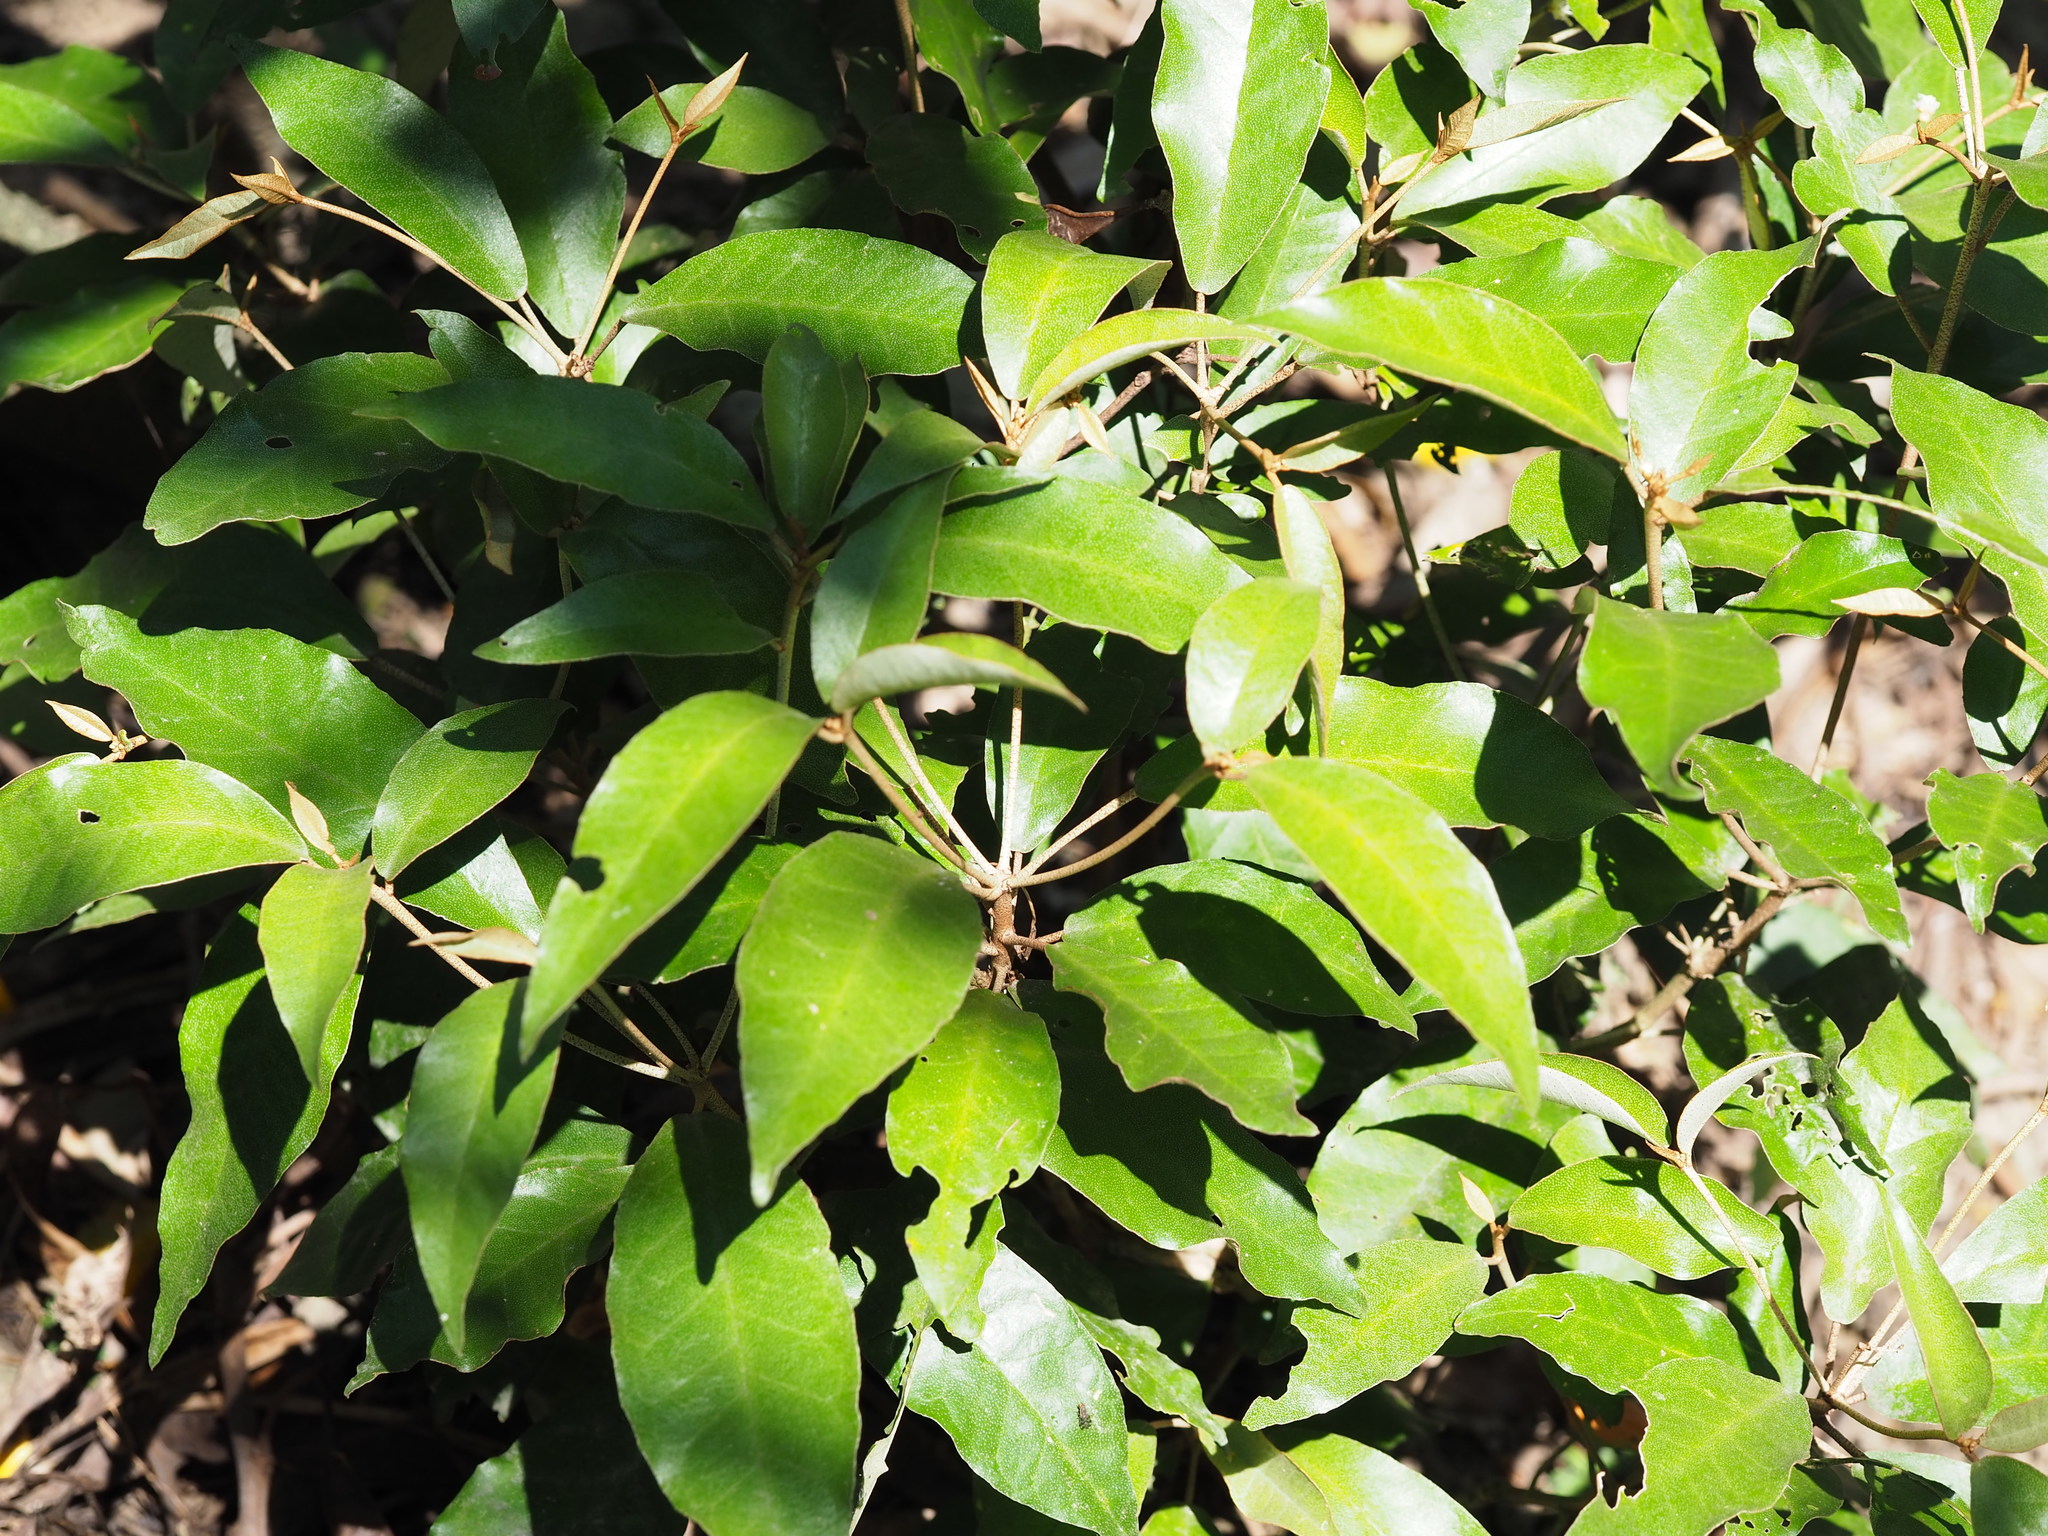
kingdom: Plantae
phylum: Tracheophyta
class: Magnoliopsida
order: Malpighiales
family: Euphorbiaceae
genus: Croton
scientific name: Croton cascarilloides
